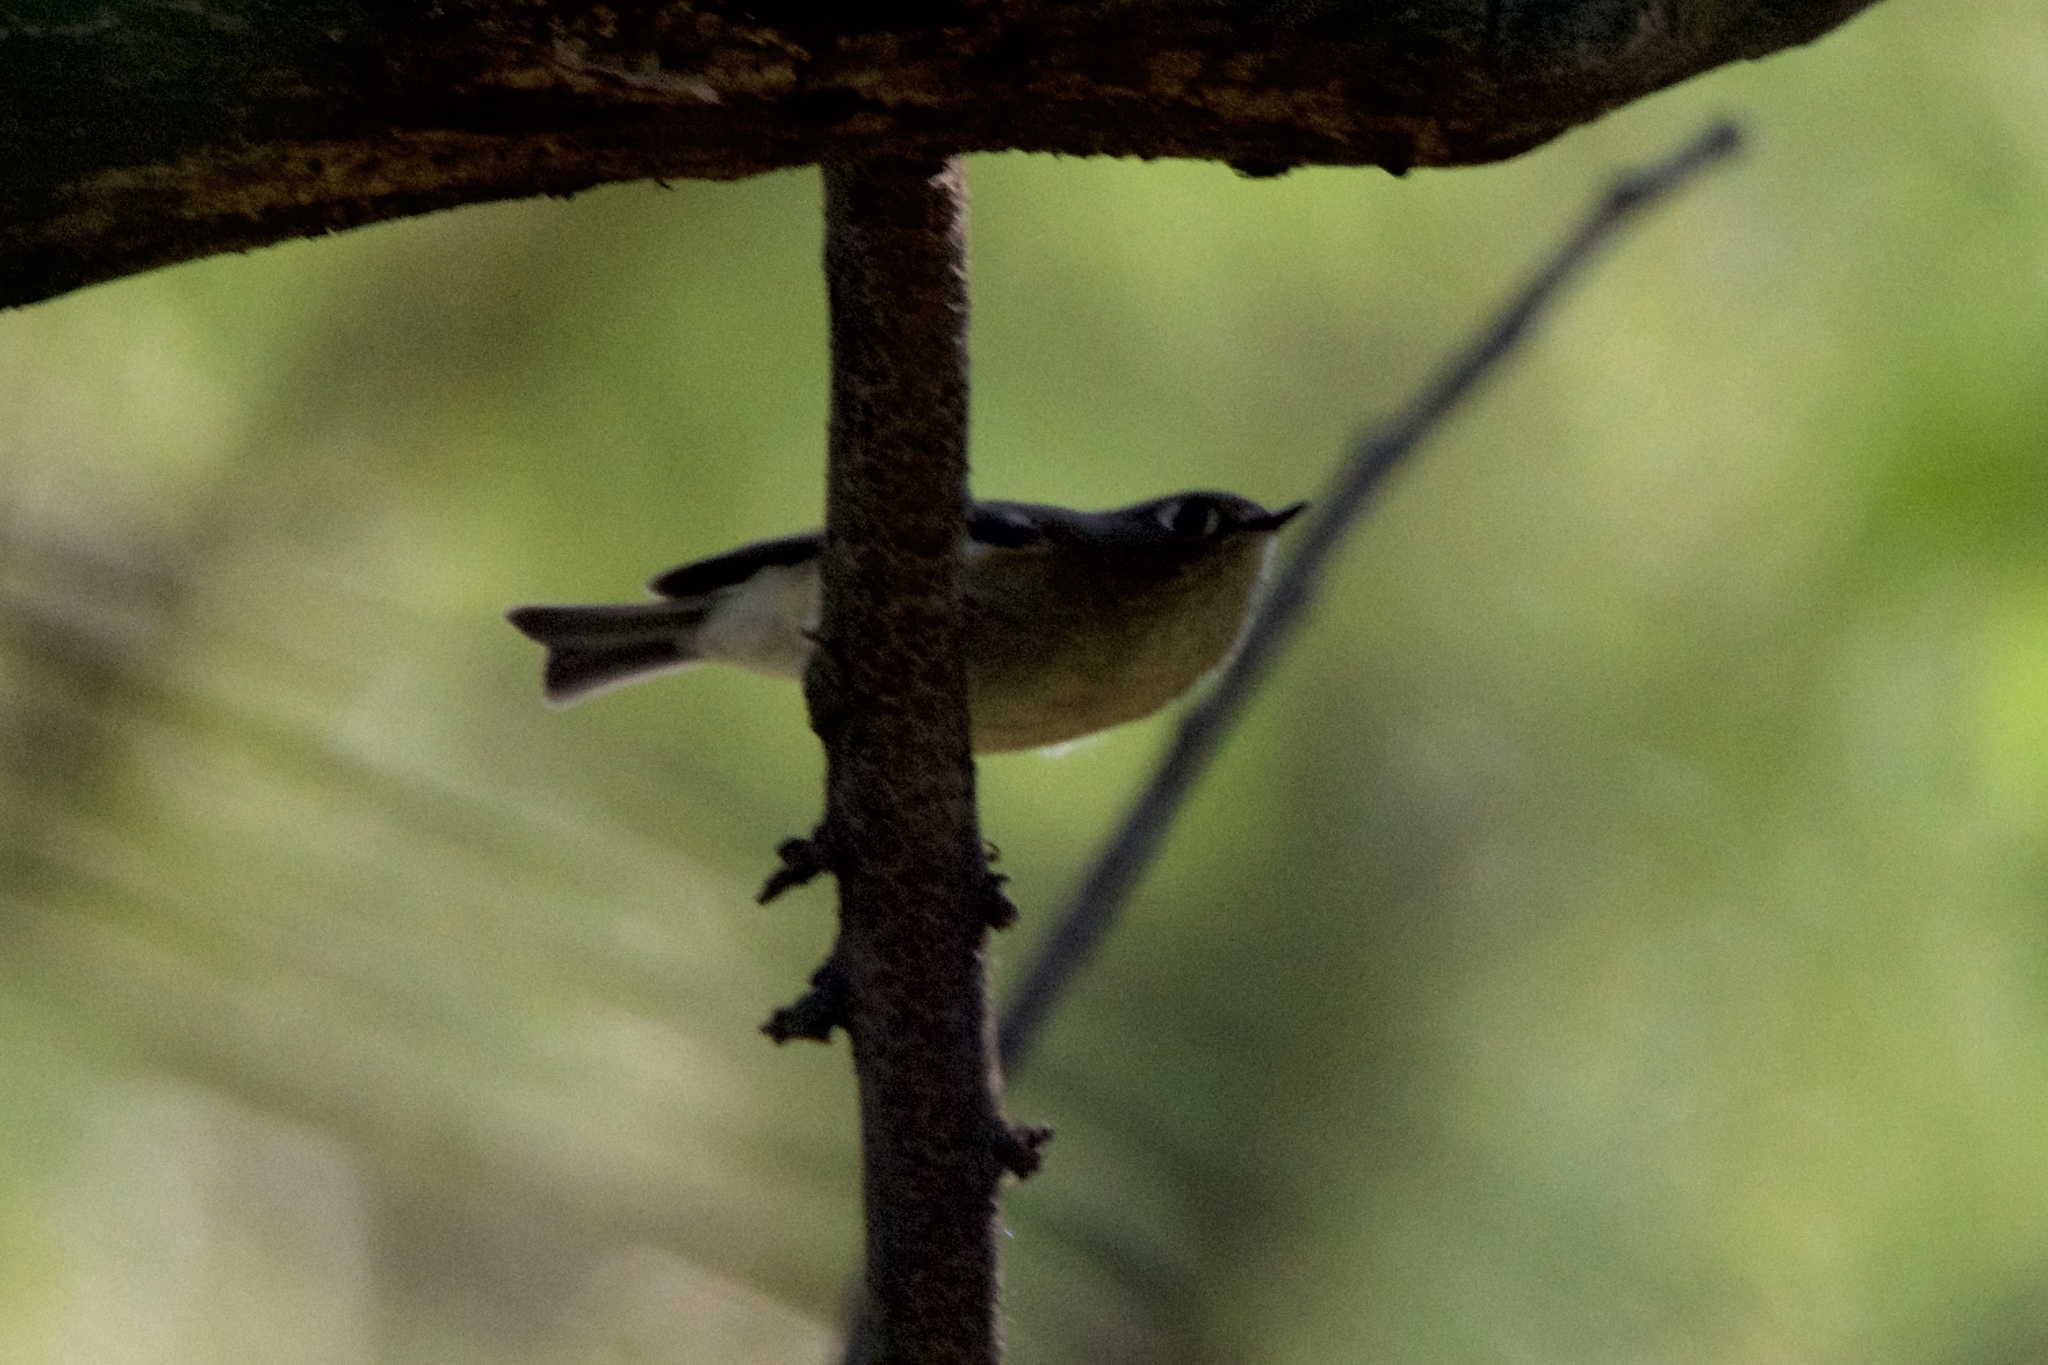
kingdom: Animalia
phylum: Chordata
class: Aves
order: Passeriformes
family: Regulidae
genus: Regulus
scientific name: Regulus calendula
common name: Ruby-crowned kinglet
